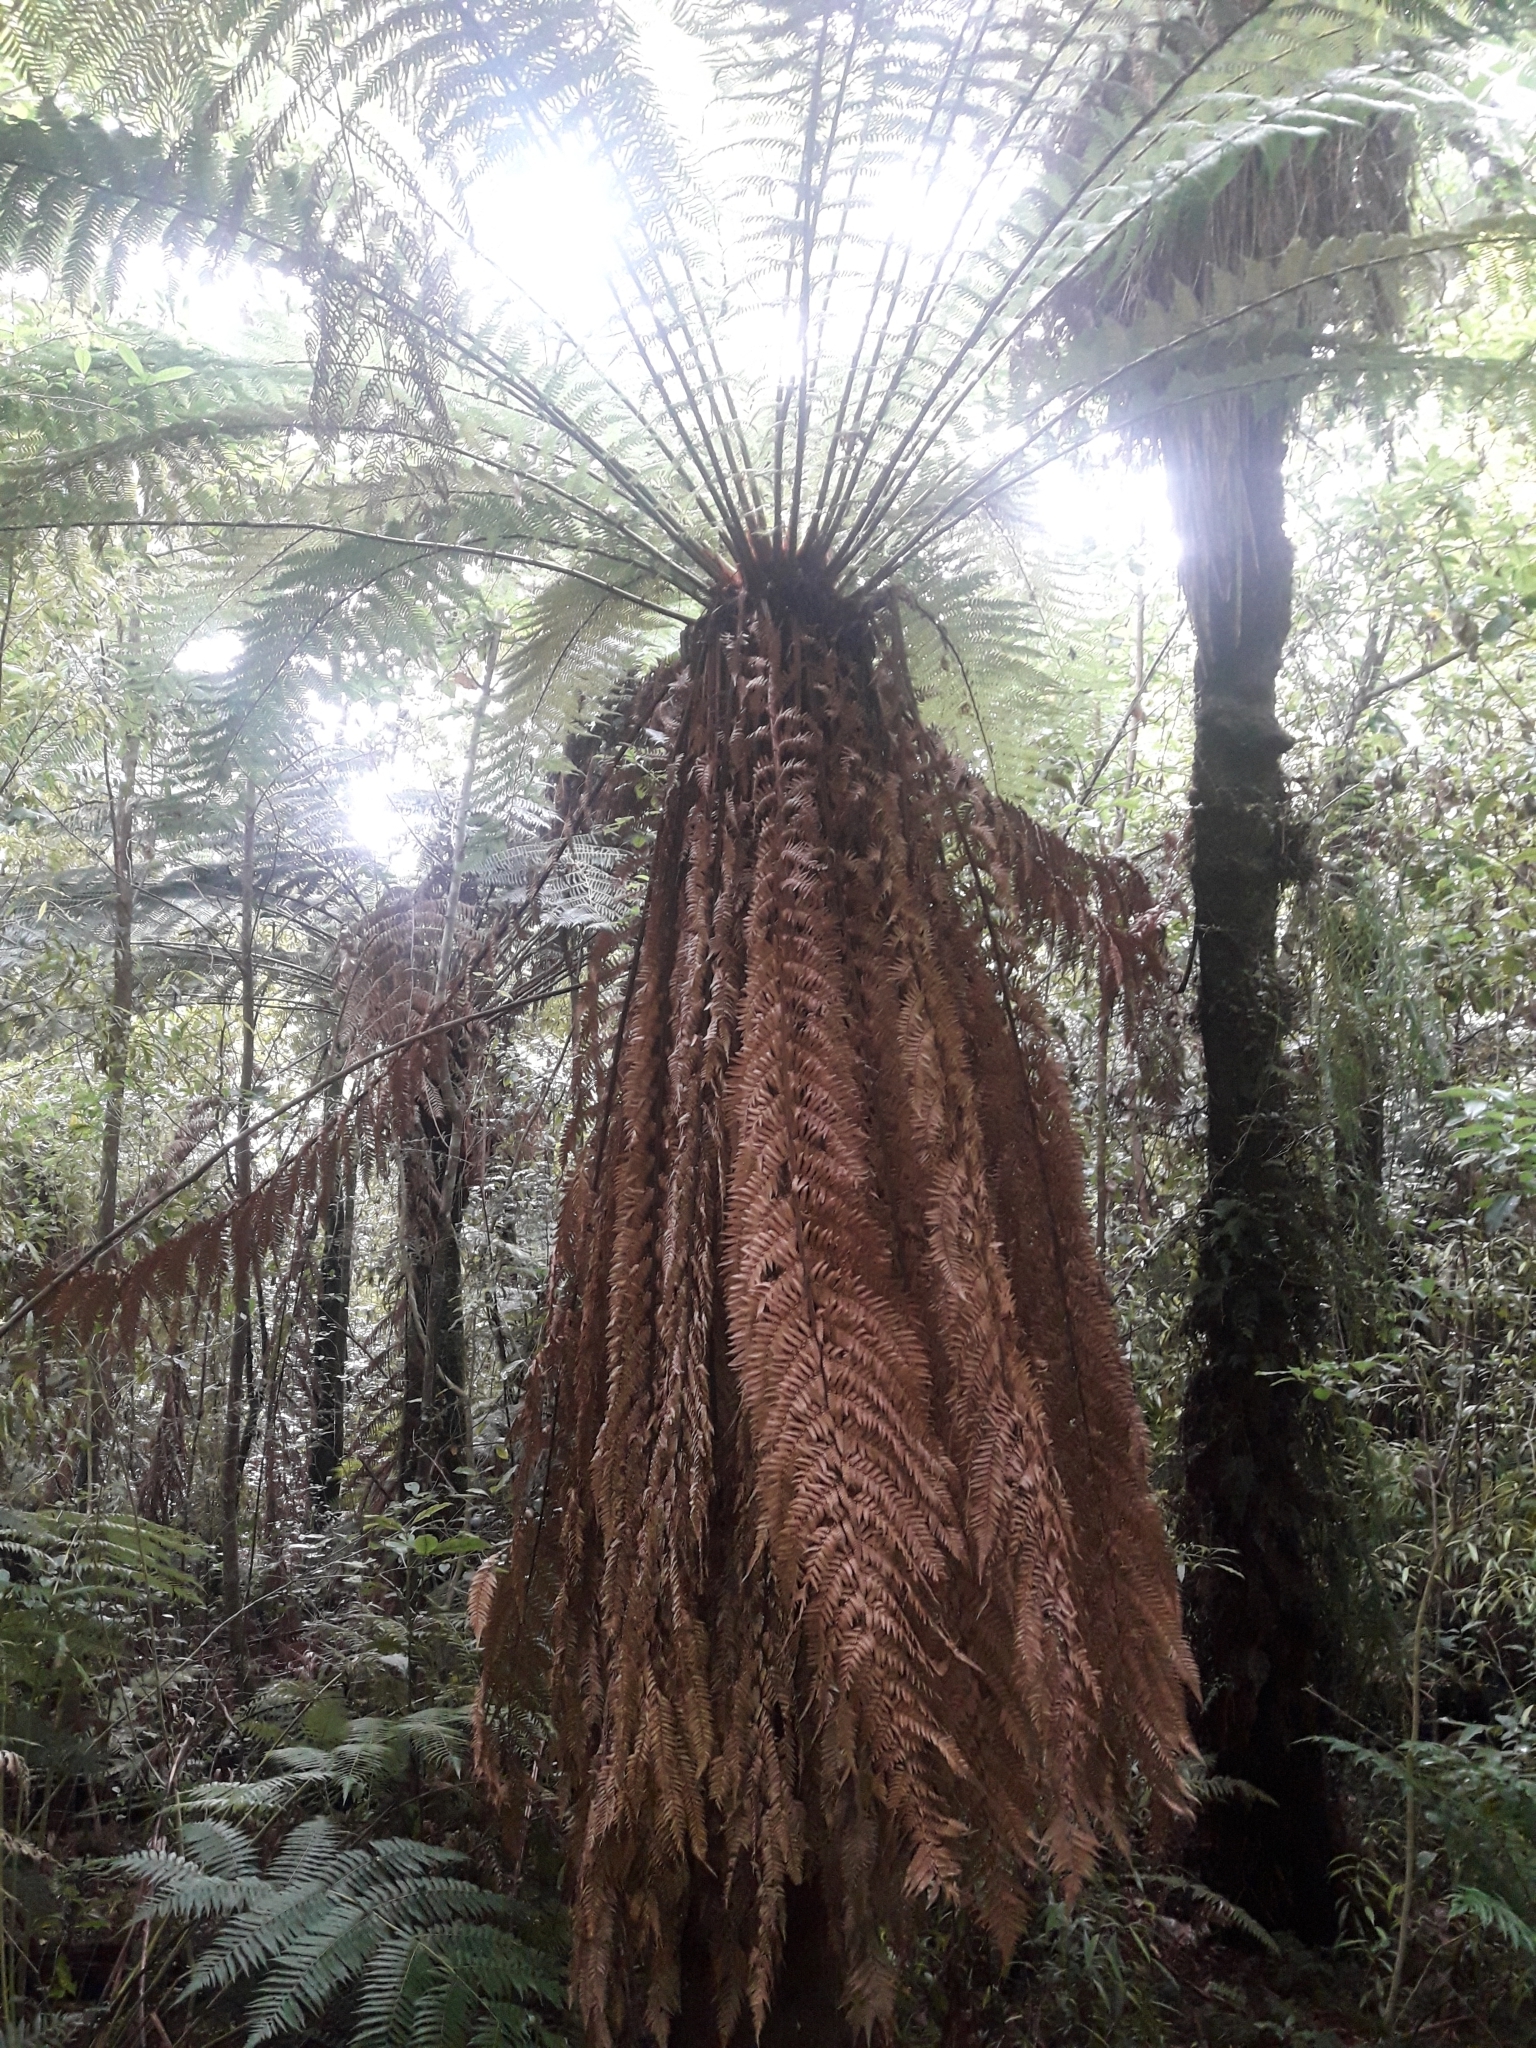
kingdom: Plantae
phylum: Tracheophyta
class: Polypodiopsida
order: Cyatheales
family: Dicksoniaceae
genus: Dicksonia
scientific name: Dicksonia fibrosa
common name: Golden tree fern
